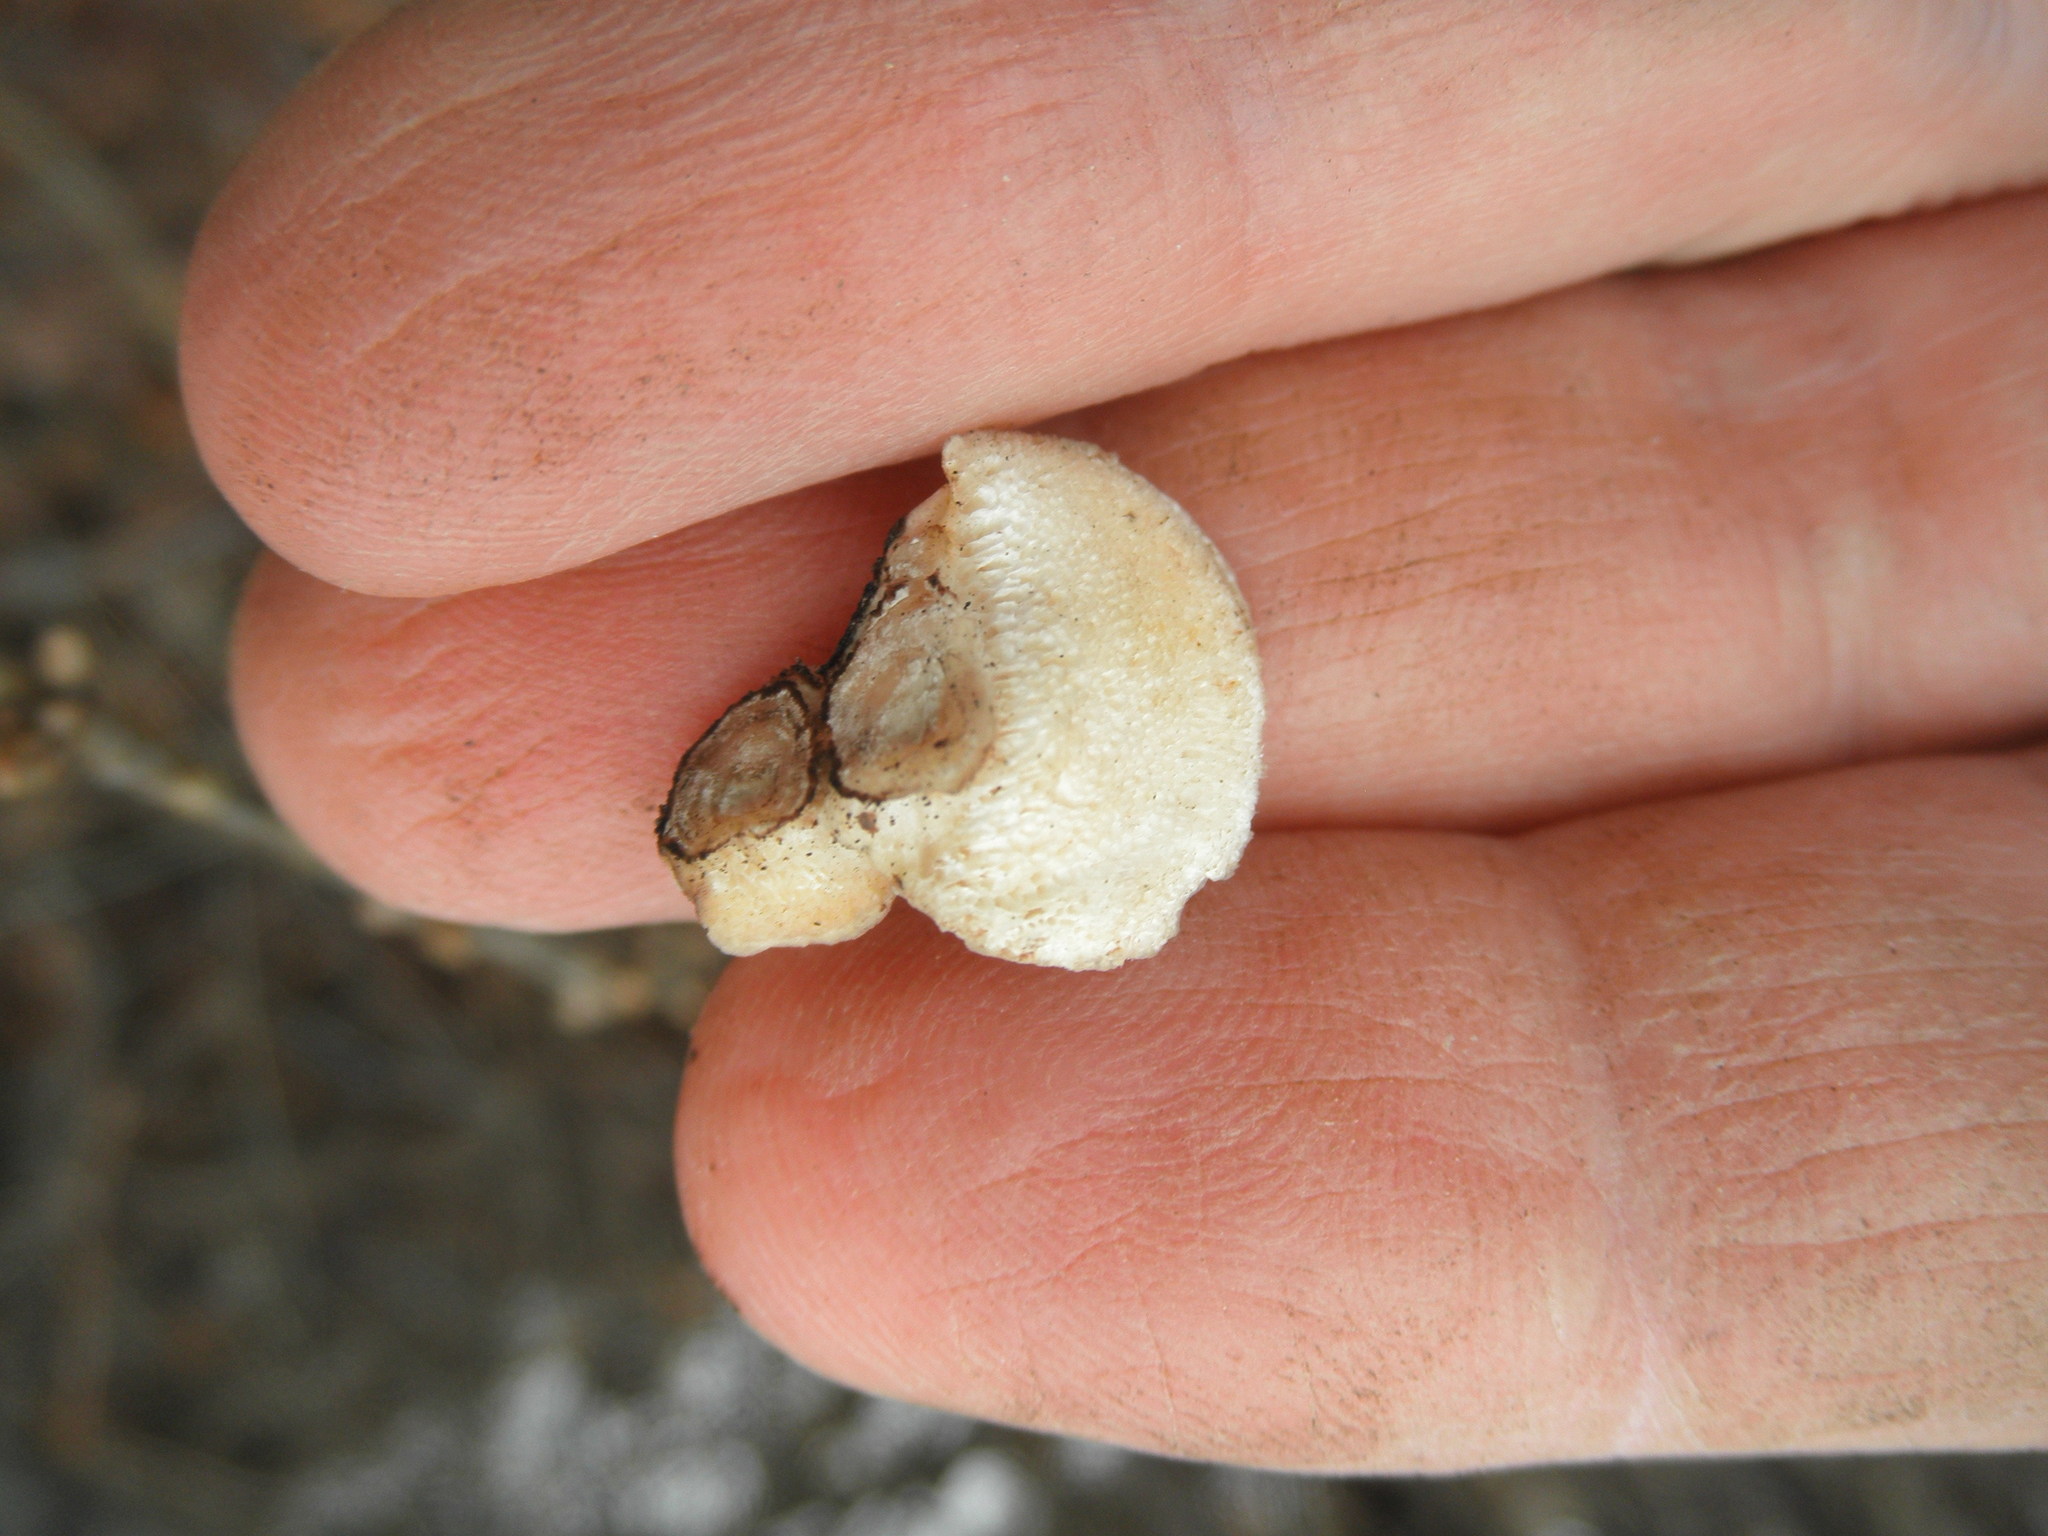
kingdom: Fungi
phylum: Basidiomycota
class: Agaricomycetes
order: Polyporales
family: Polyporaceae
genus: Poronidulus
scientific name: Poronidulus conchifer
